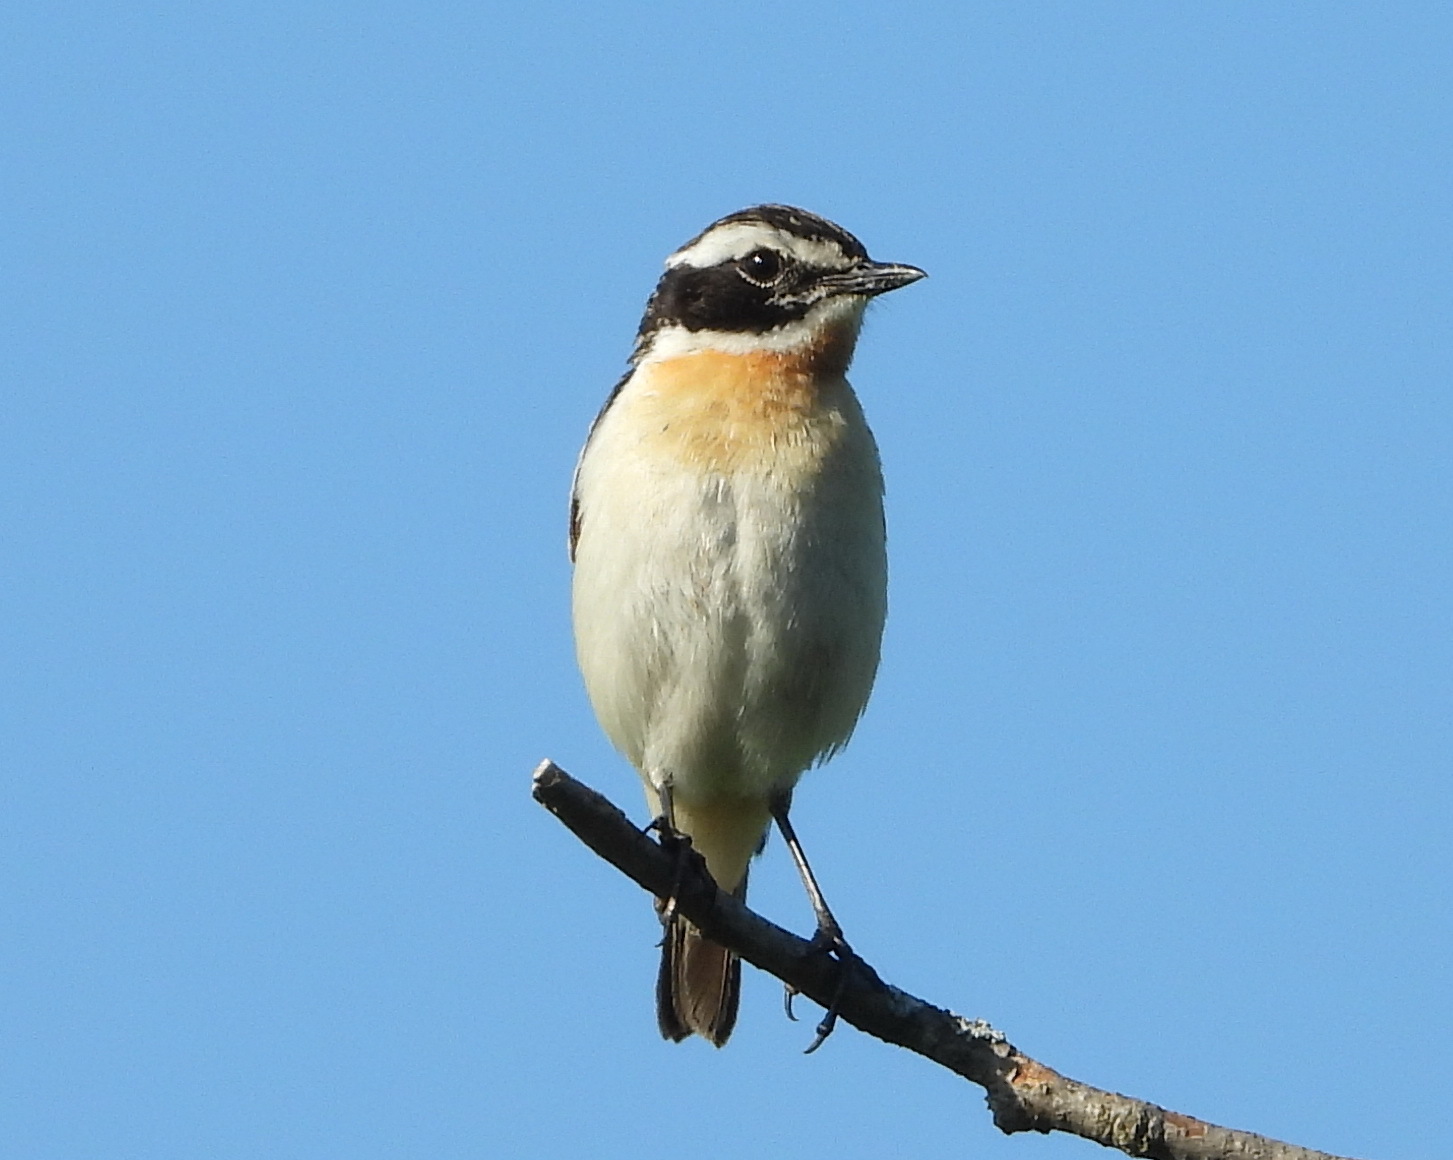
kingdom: Animalia
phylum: Chordata
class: Aves
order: Passeriformes
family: Muscicapidae
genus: Saxicola
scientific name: Saxicola rubetra
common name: Whinchat
